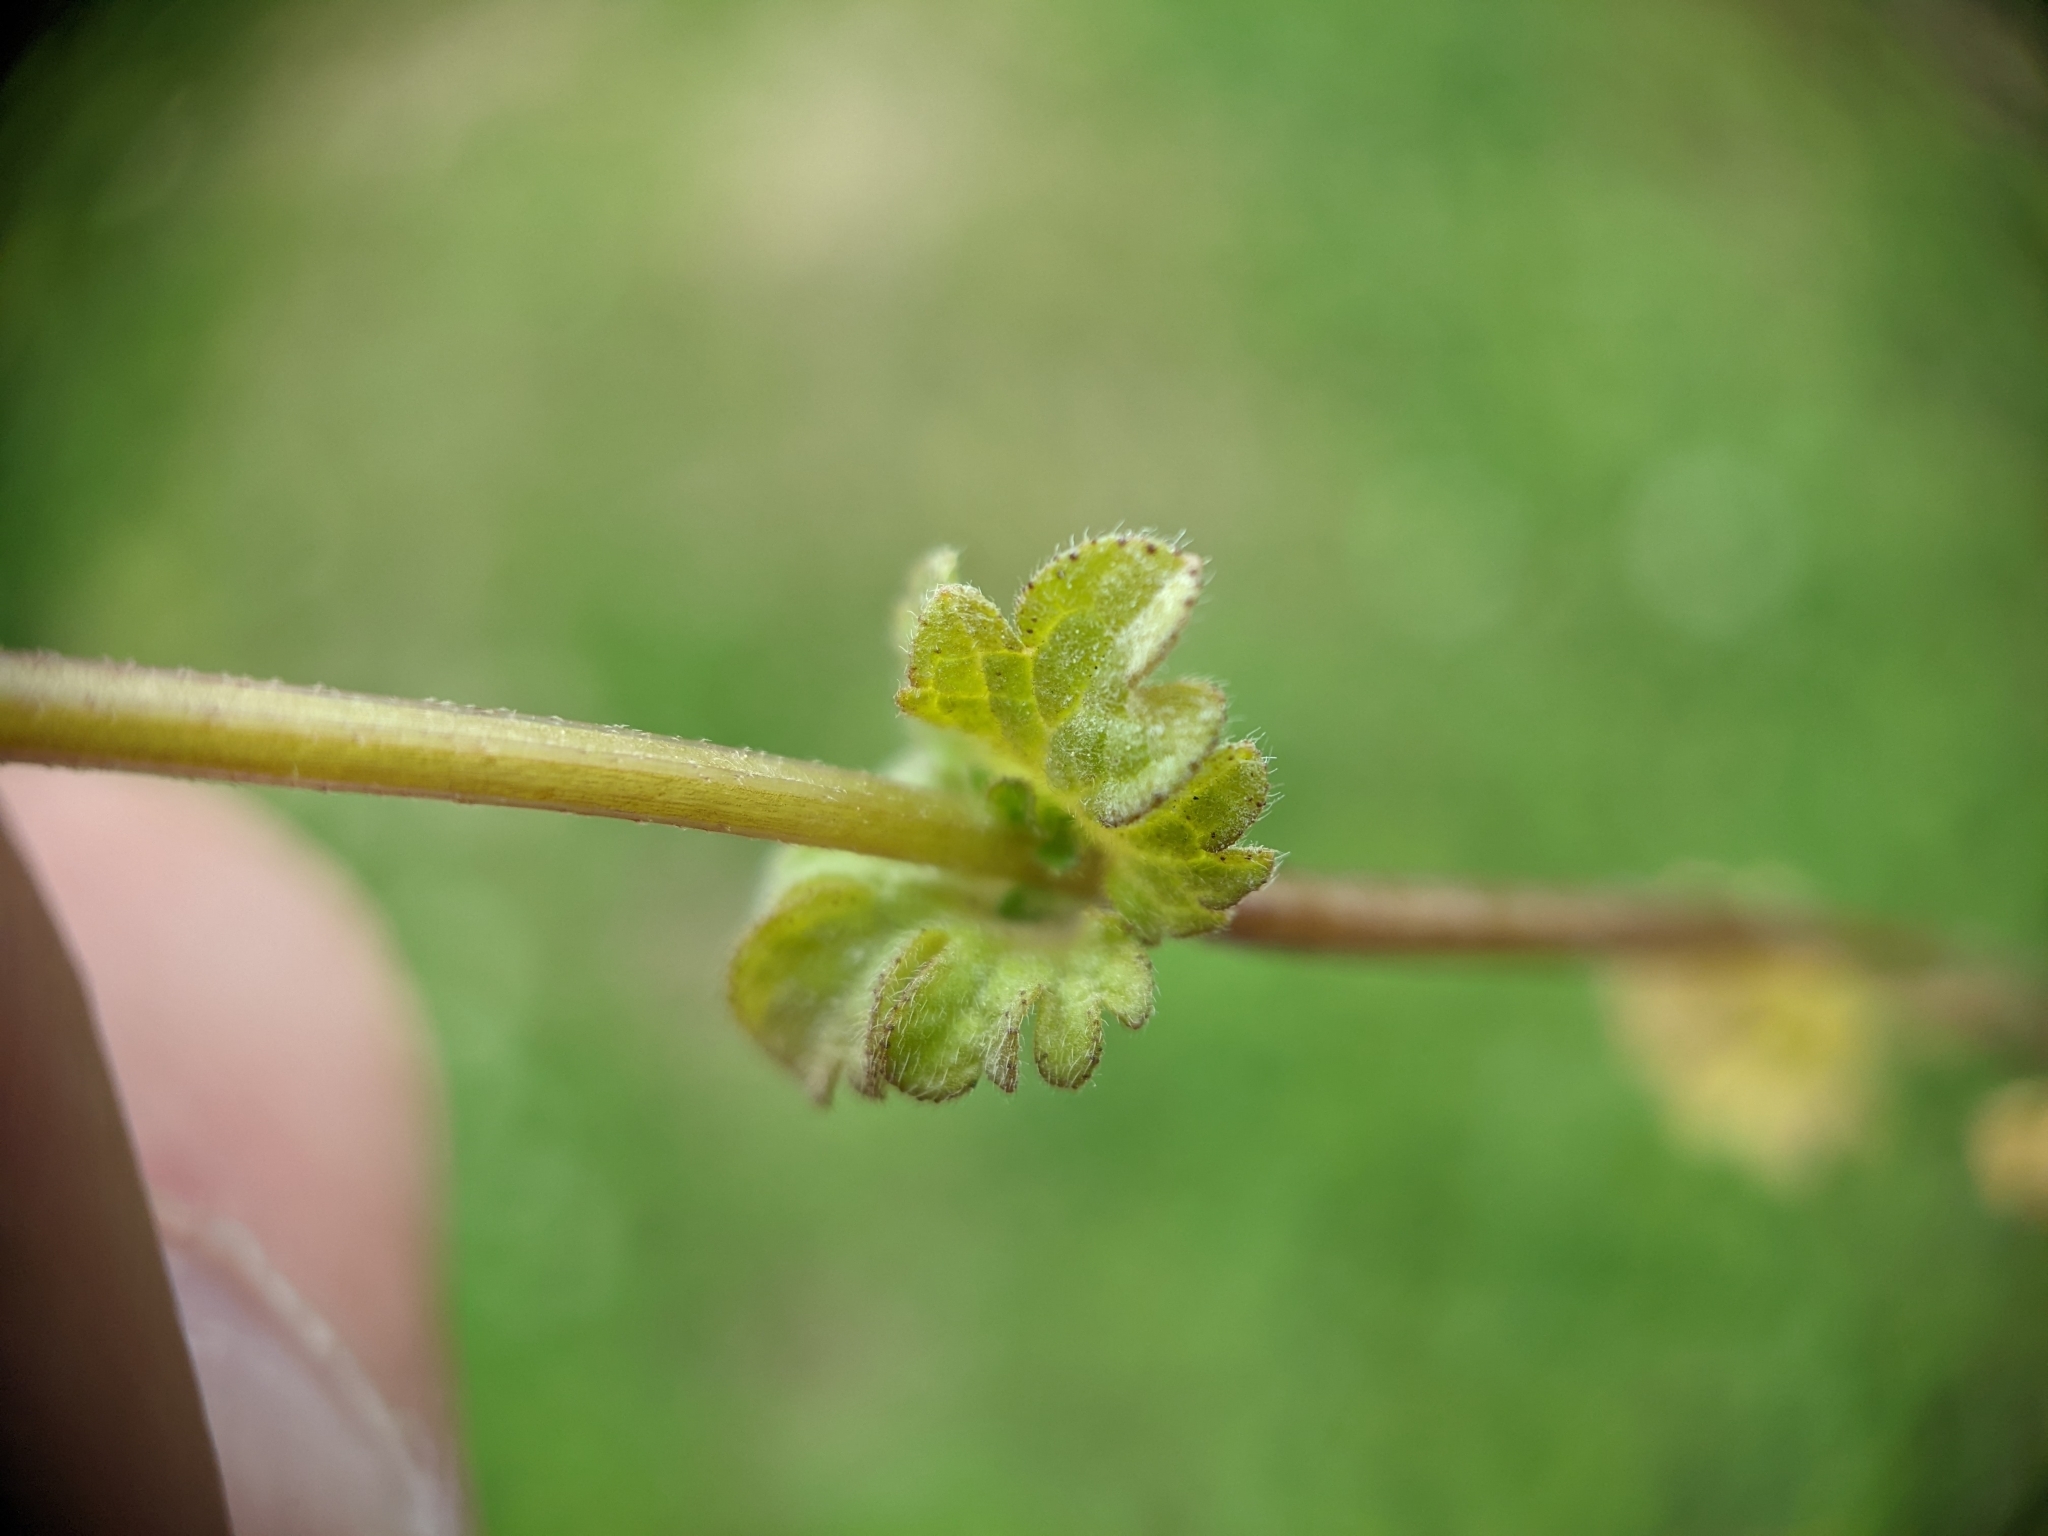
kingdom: Plantae
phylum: Tracheophyta
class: Magnoliopsida
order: Lamiales
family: Lamiaceae
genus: Lamium
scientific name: Lamium amplexicaule
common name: Henbit dead-nettle
